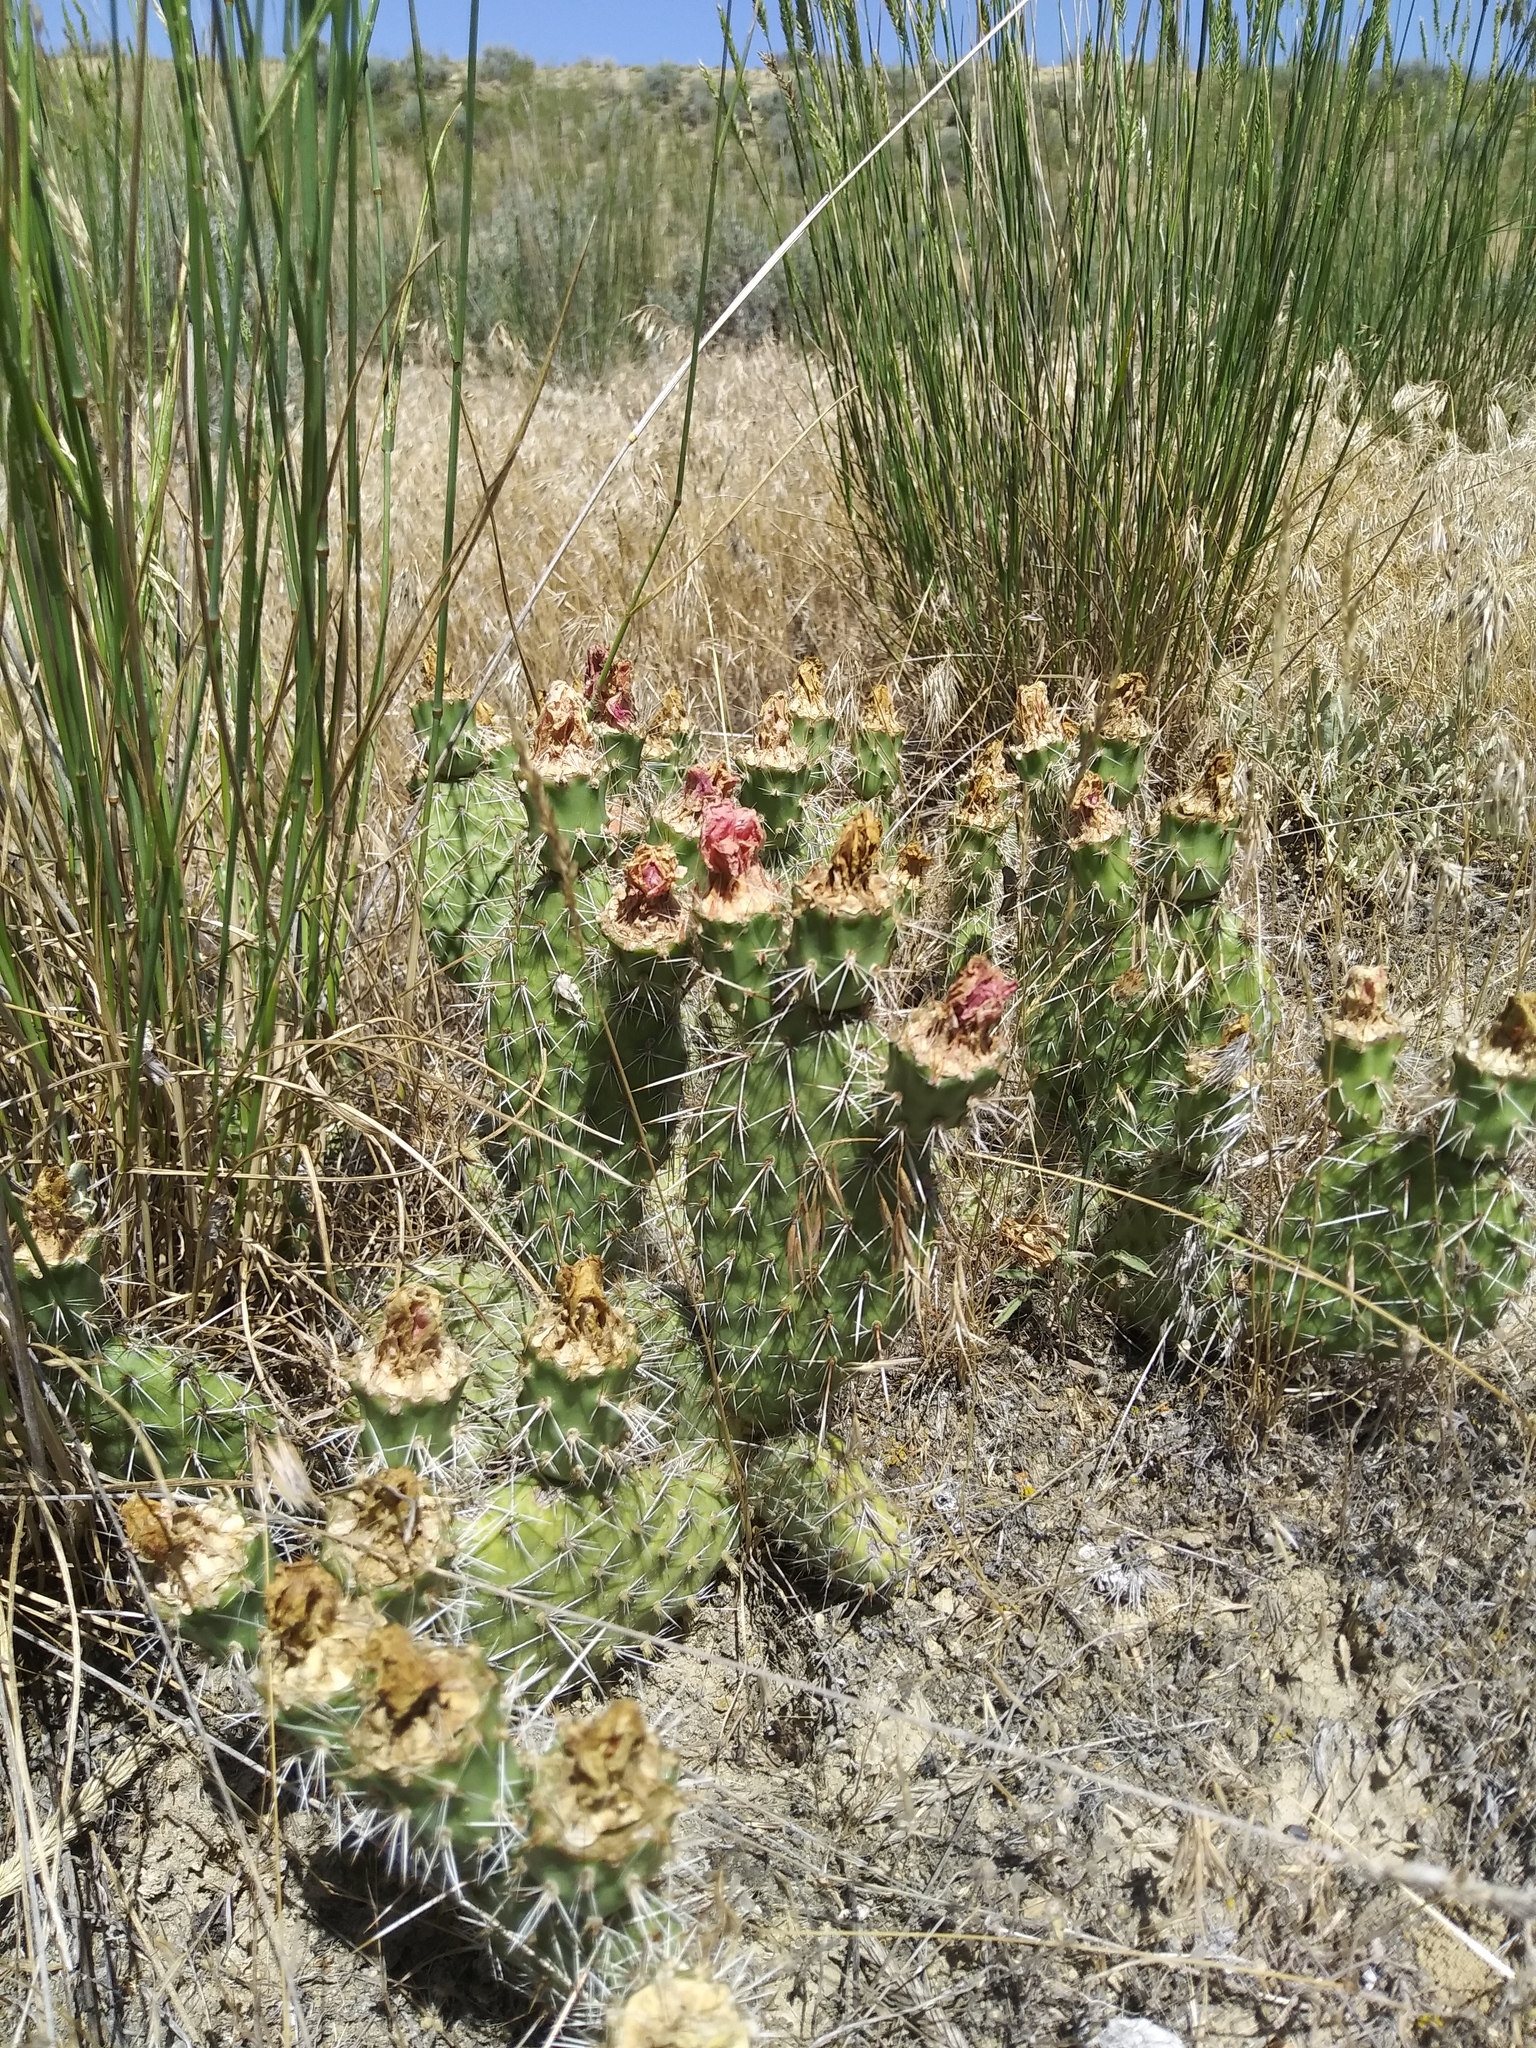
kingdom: Plantae
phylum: Tracheophyta
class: Magnoliopsida
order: Caryophyllales
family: Cactaceae
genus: Opuntia
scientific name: Opuntia polyacantha
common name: Plains prickly-pear
